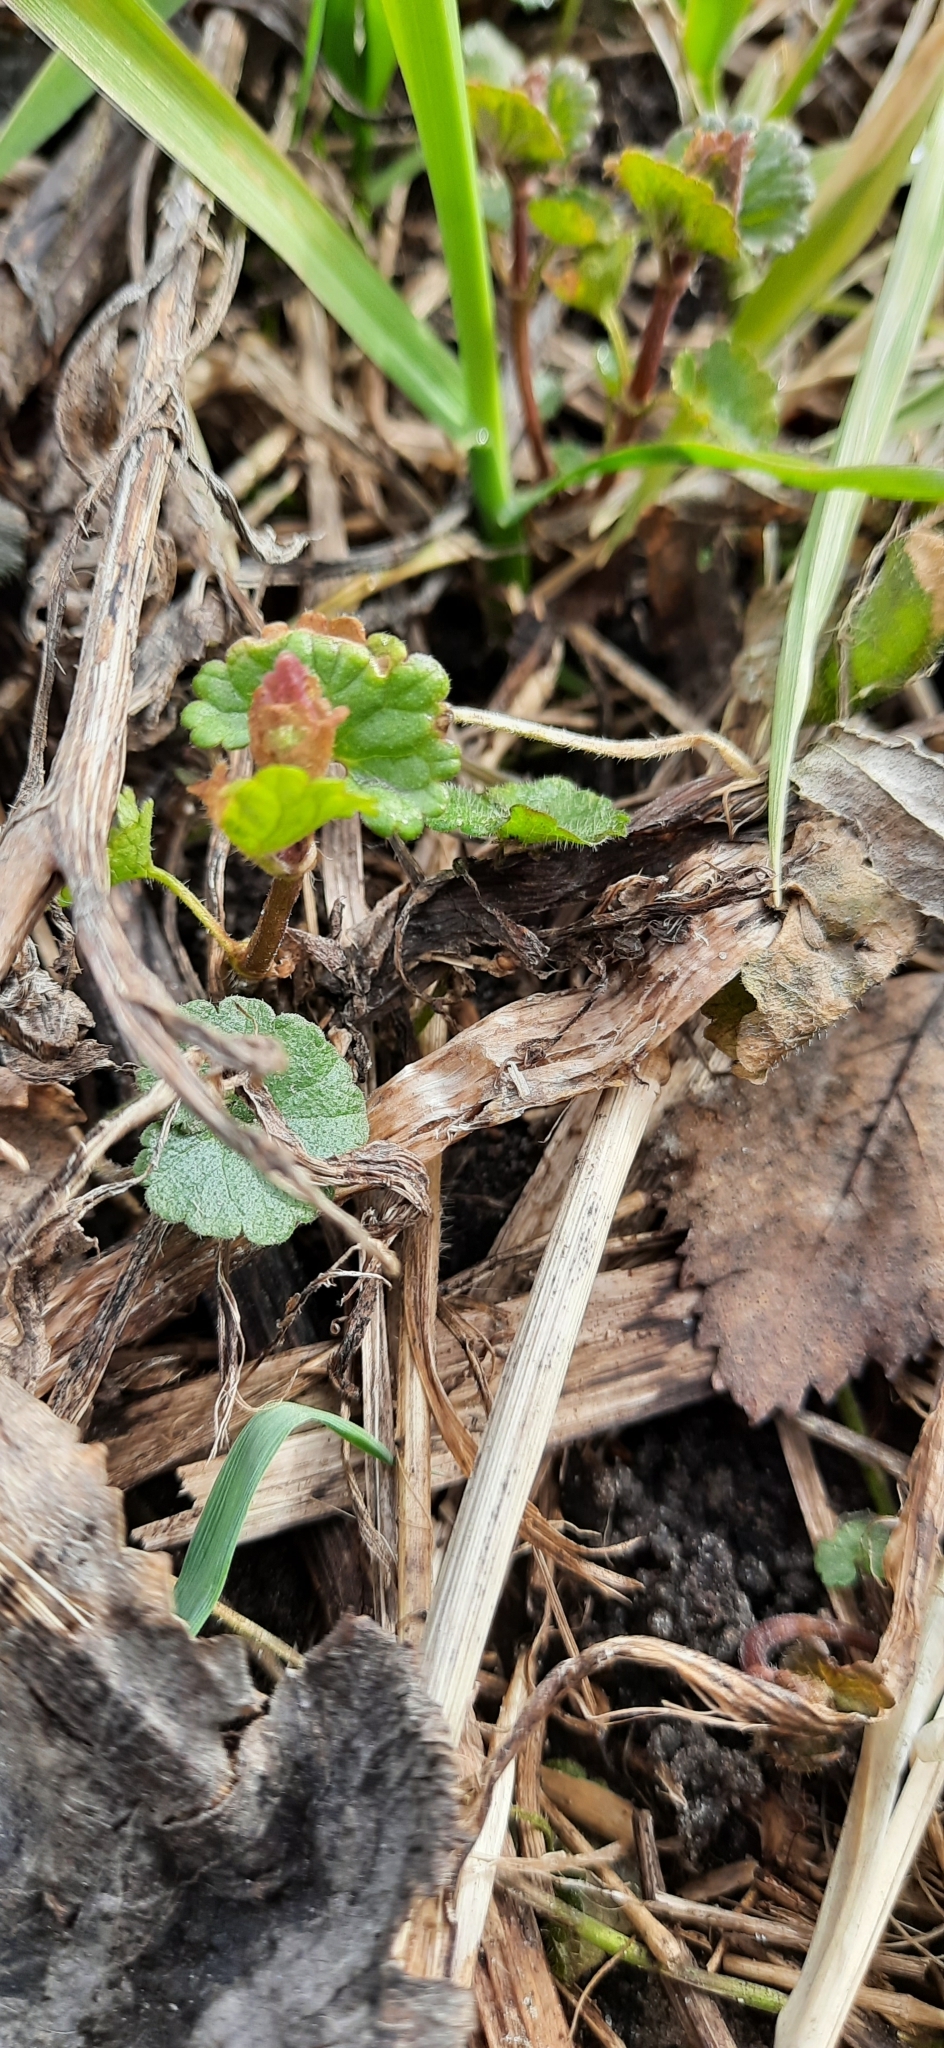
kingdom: Plantae
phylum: Tracheophyta
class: Magnoliopsida
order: Lamiales
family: Lamiaceae
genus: Glechoma
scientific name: Glechoma hederacea
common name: Ground ivy
